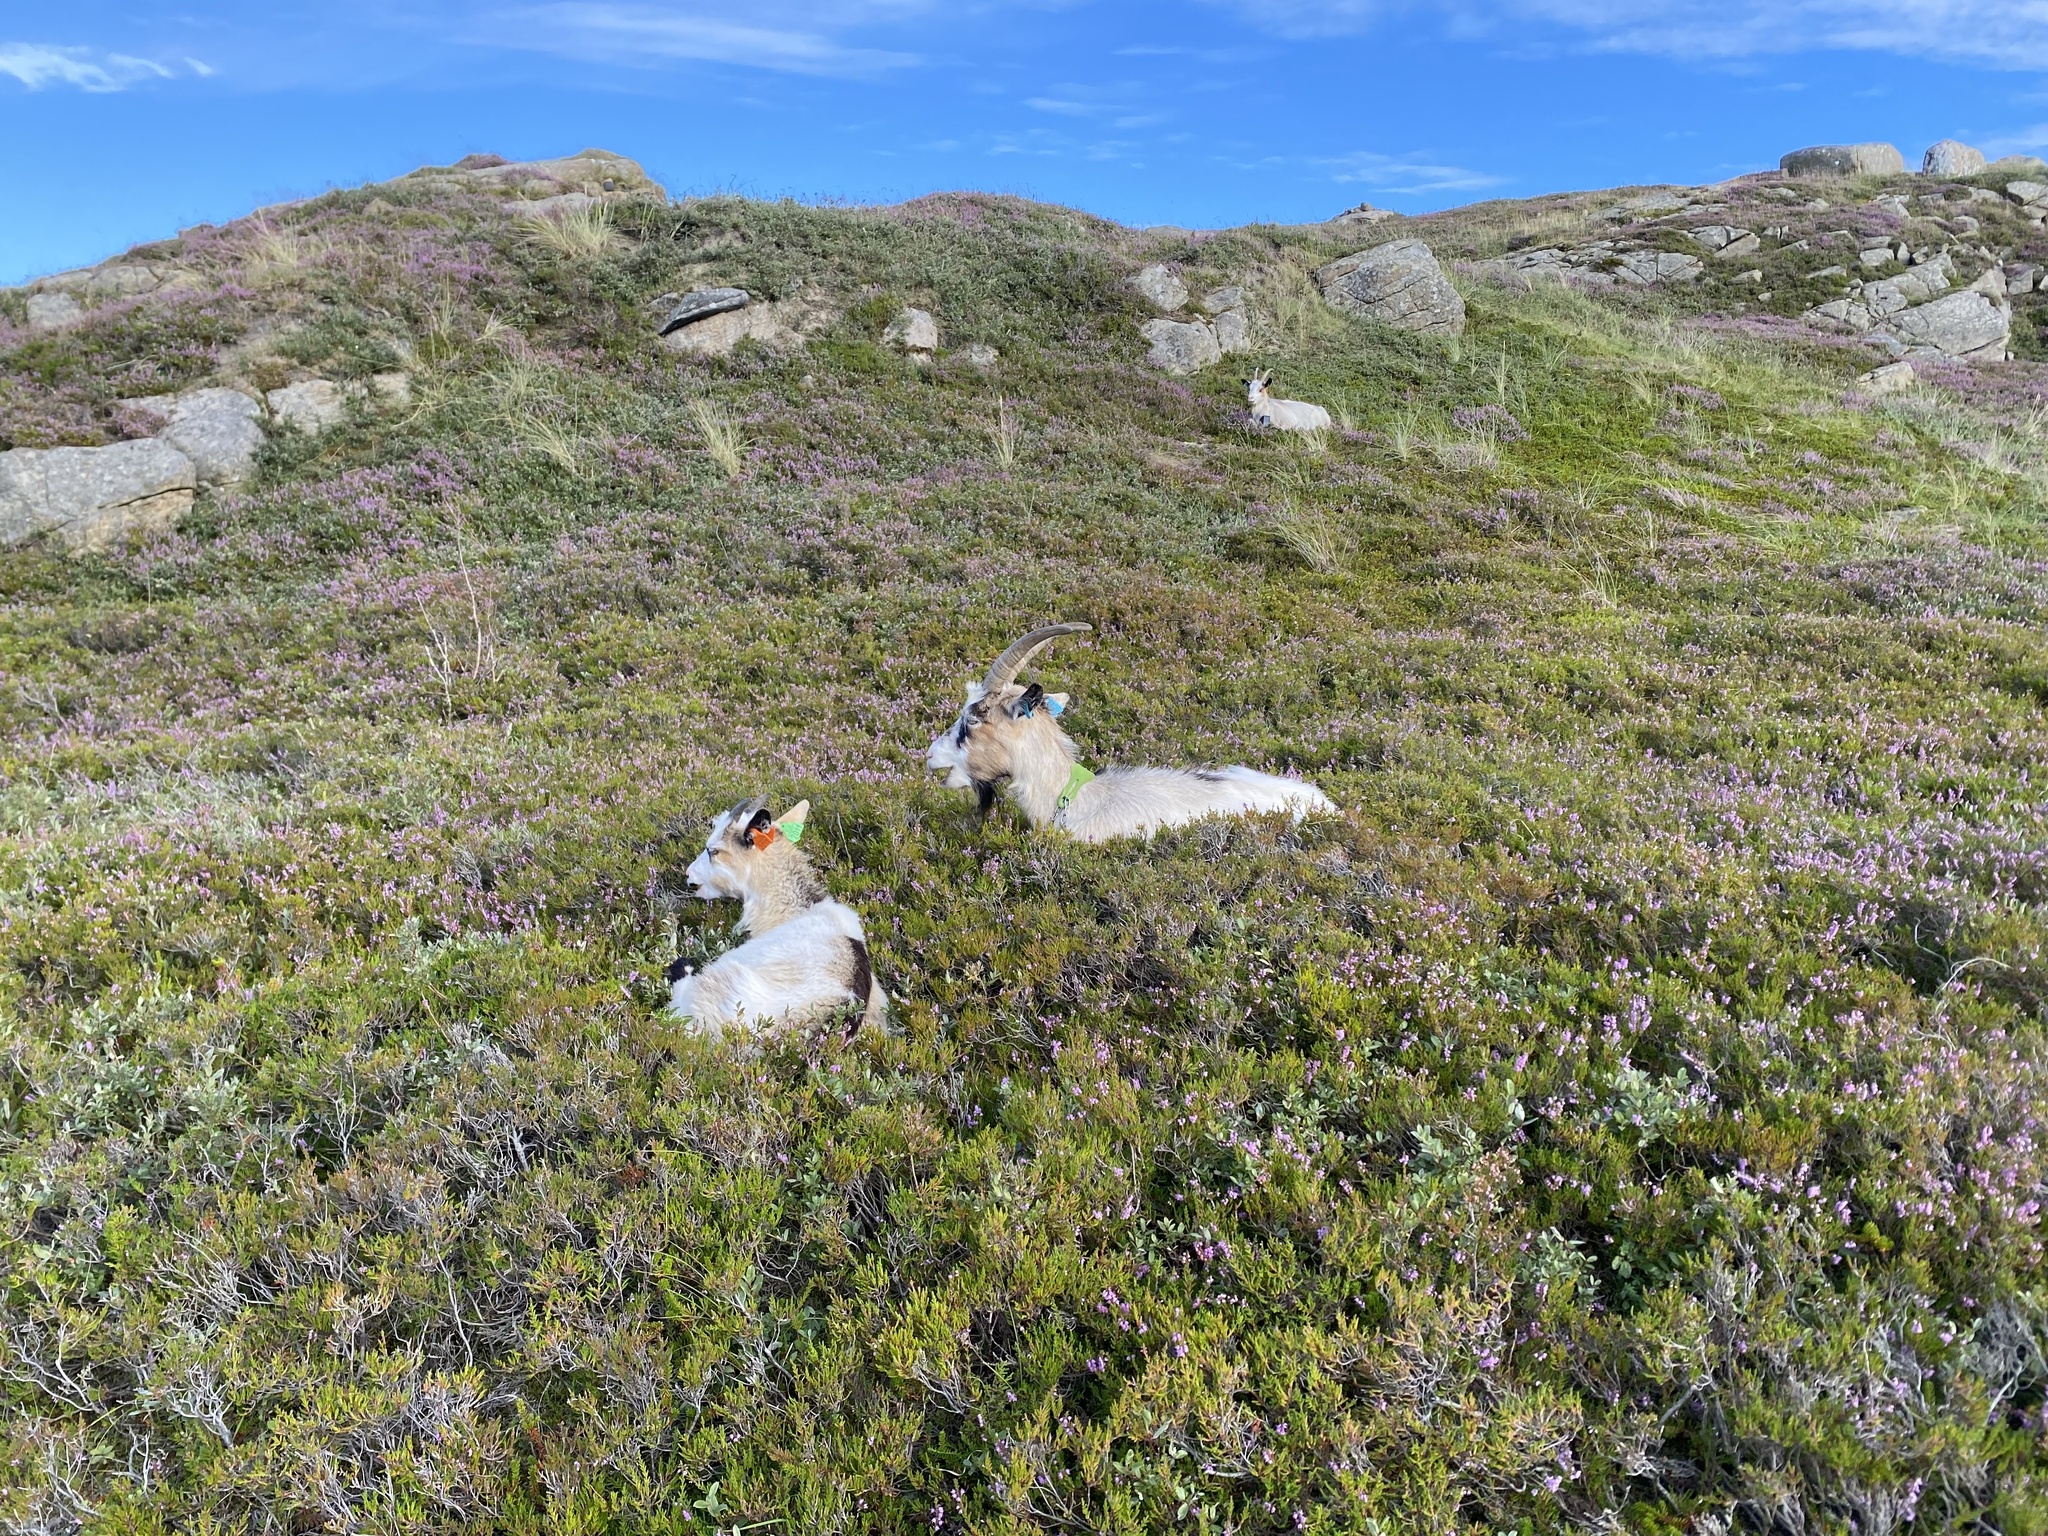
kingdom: Animalia
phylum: Chordata
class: Mammalia
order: Artiodactyla
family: Bovidae
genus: Capra
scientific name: Capra hircus
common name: Domestic goat
